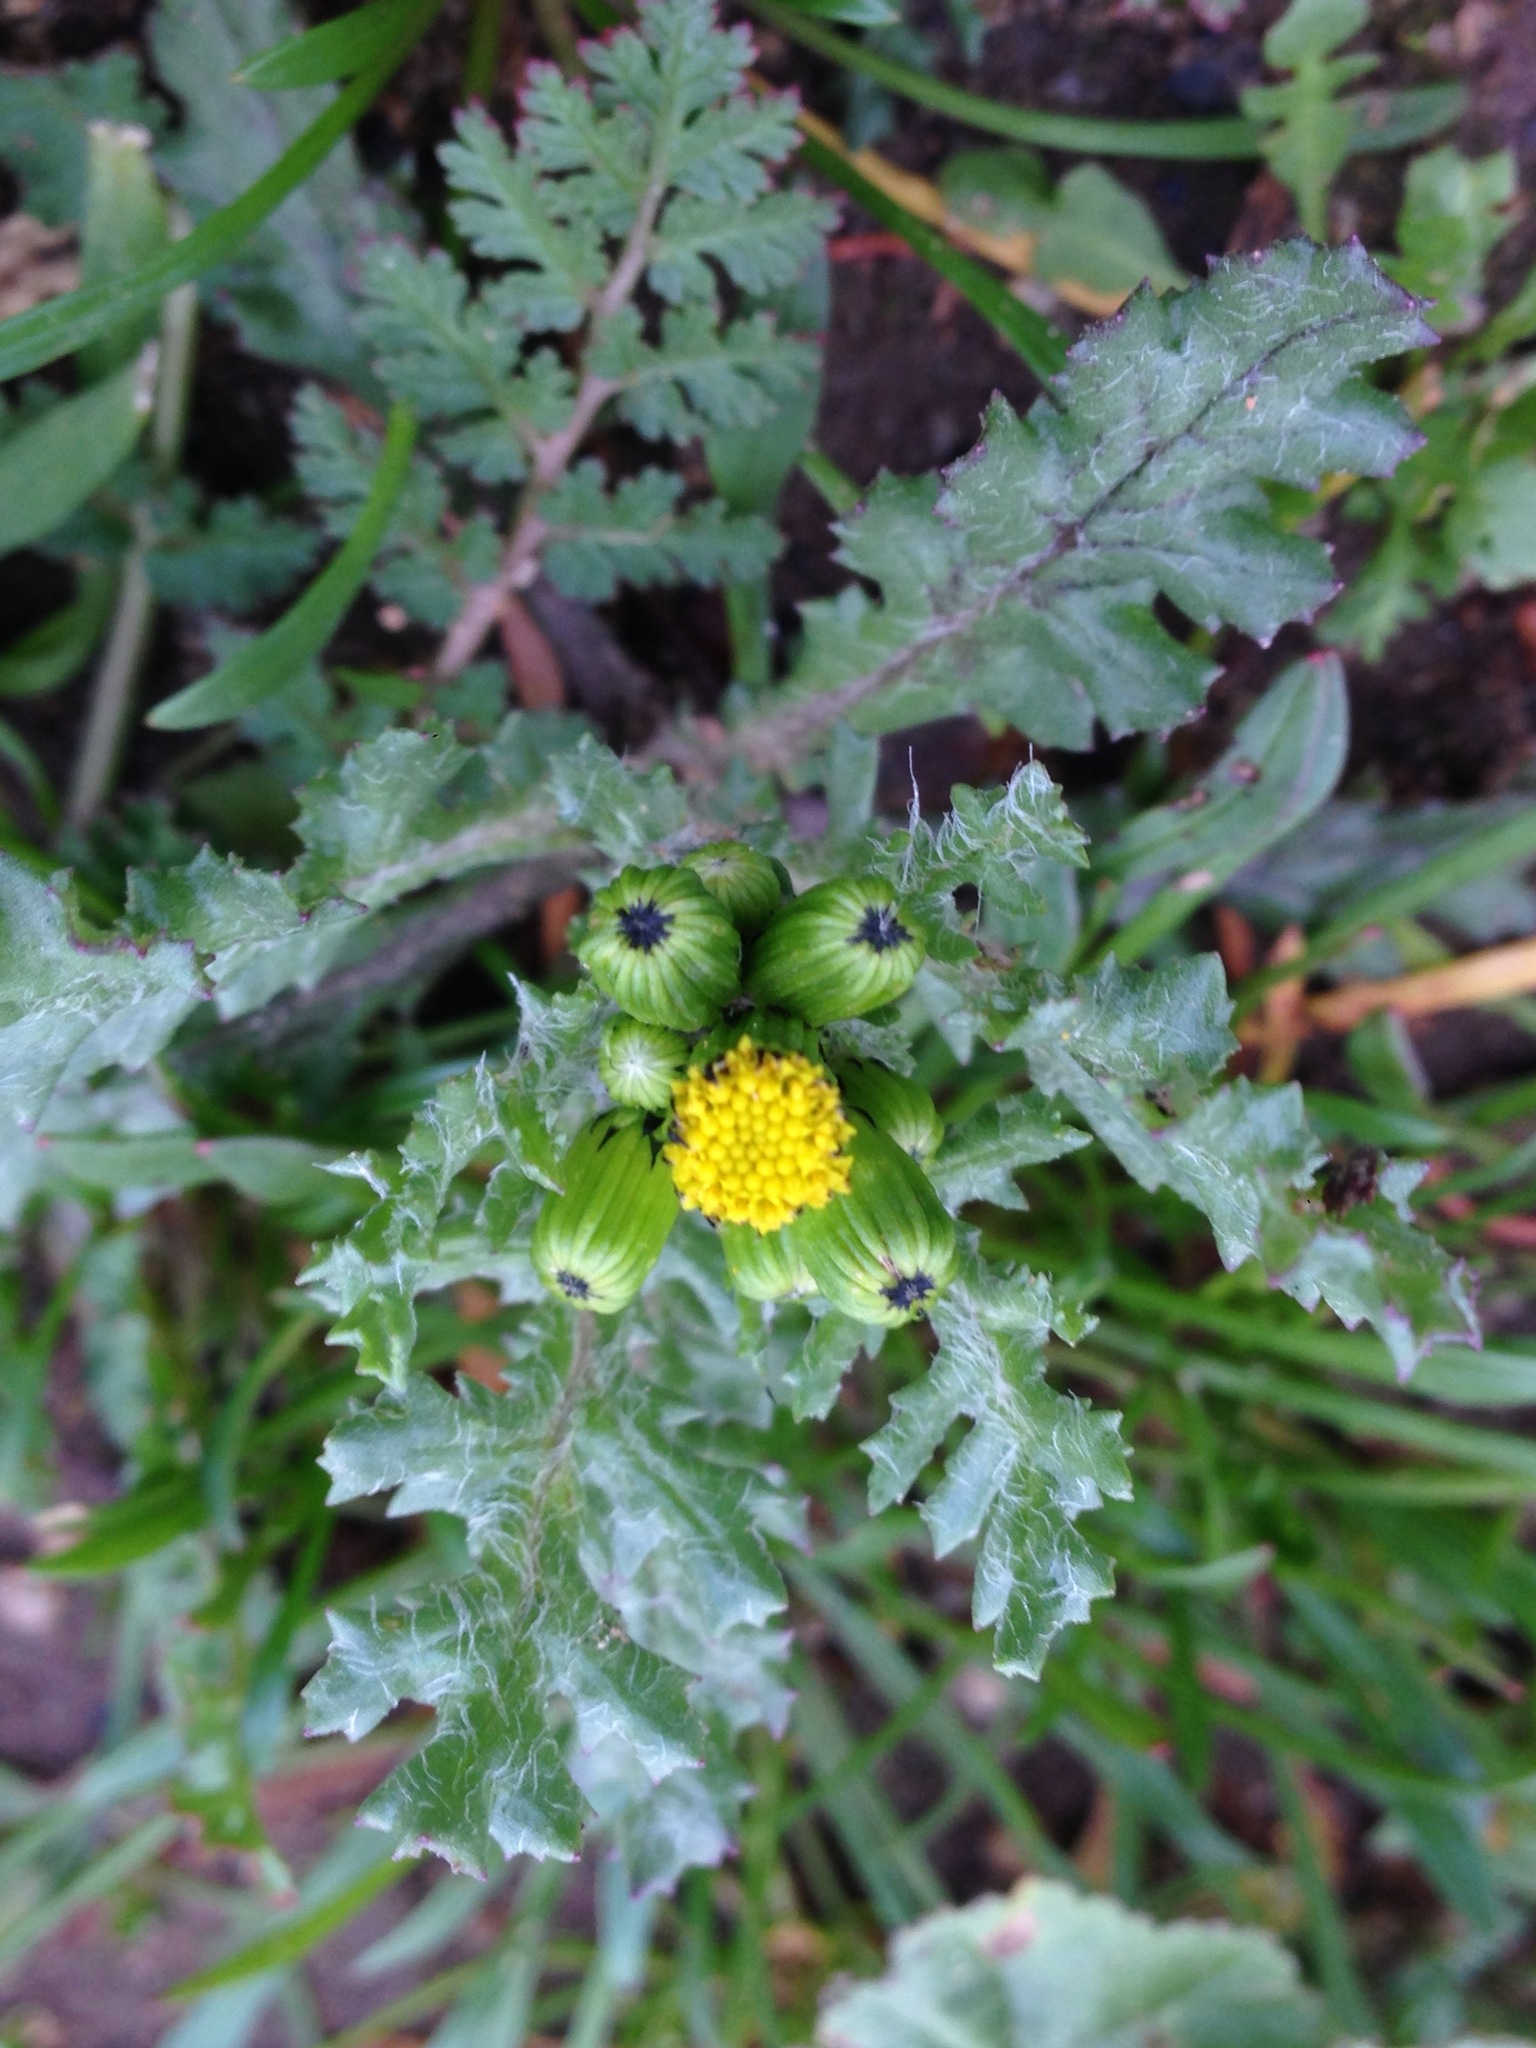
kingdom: Plantae
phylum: Tracheophyta
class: Magnoliopsida
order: Asterales
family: Asteraceae
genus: Senecio
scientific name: Senecio vulgaris
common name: Old-man-in-the-spring
